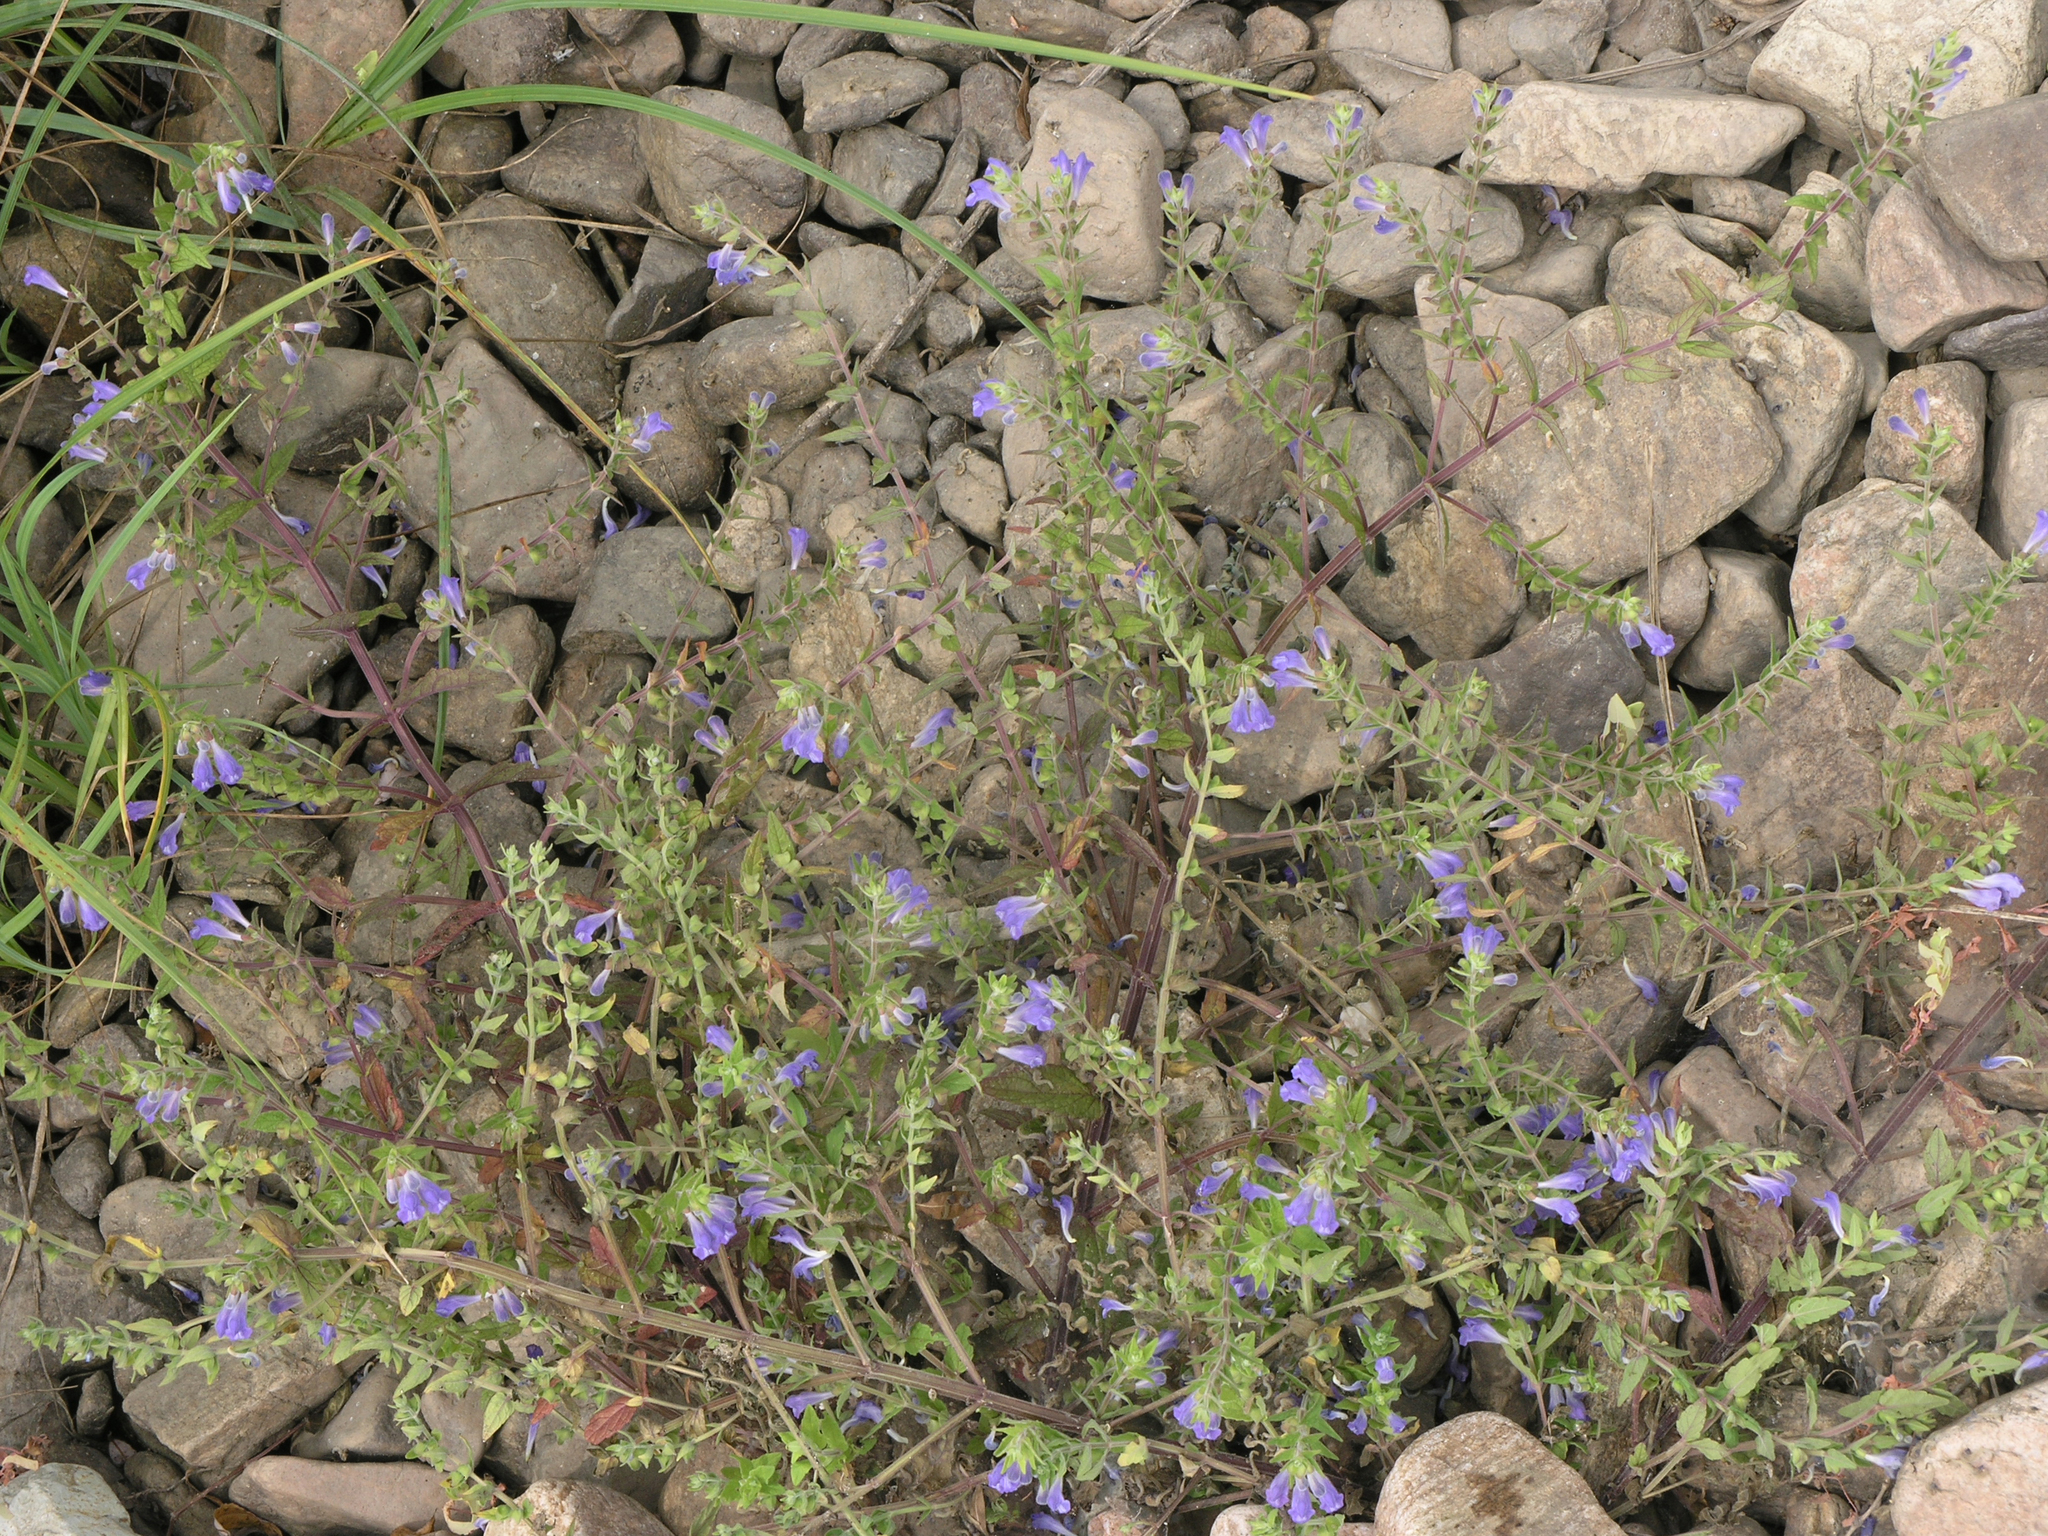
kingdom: Plantae
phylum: Tracheophyta
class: Magnoliopsida
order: Lamiales
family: Lamiaceae
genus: Scutellaria
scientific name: Scutellaria galericulata
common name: Skullcap
